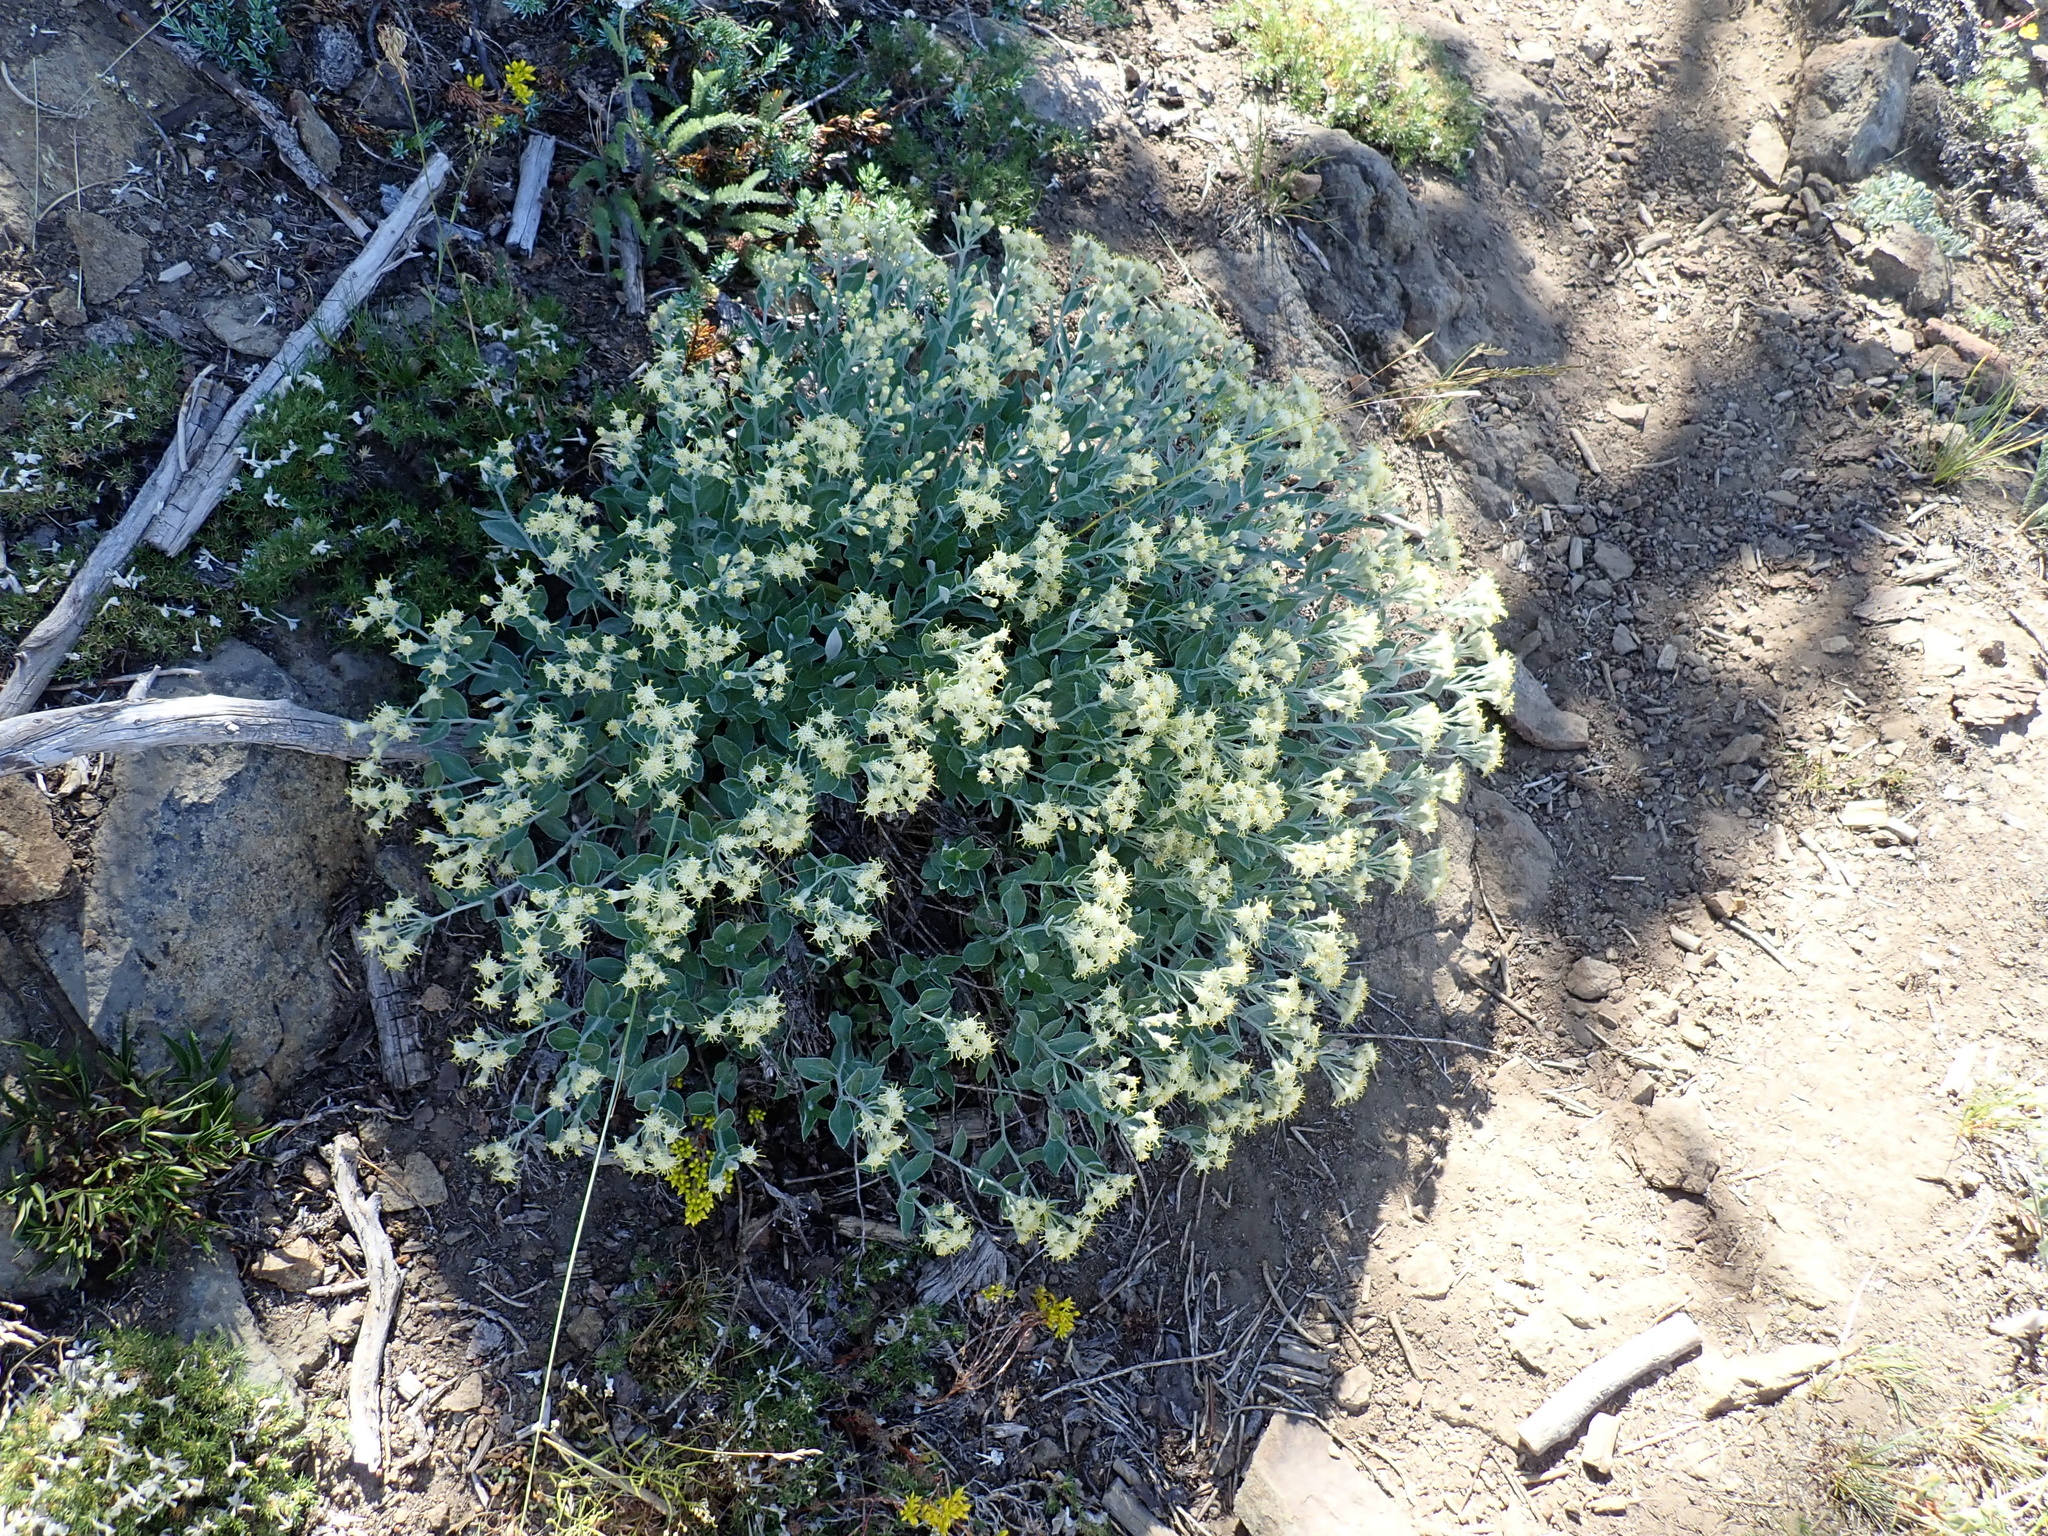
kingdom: Plantae
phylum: Tracheophyta
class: Magnoliopsida
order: Asterales
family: Asteraceae
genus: Luina
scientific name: Luina hypoleuca
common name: Little-leaved luina
